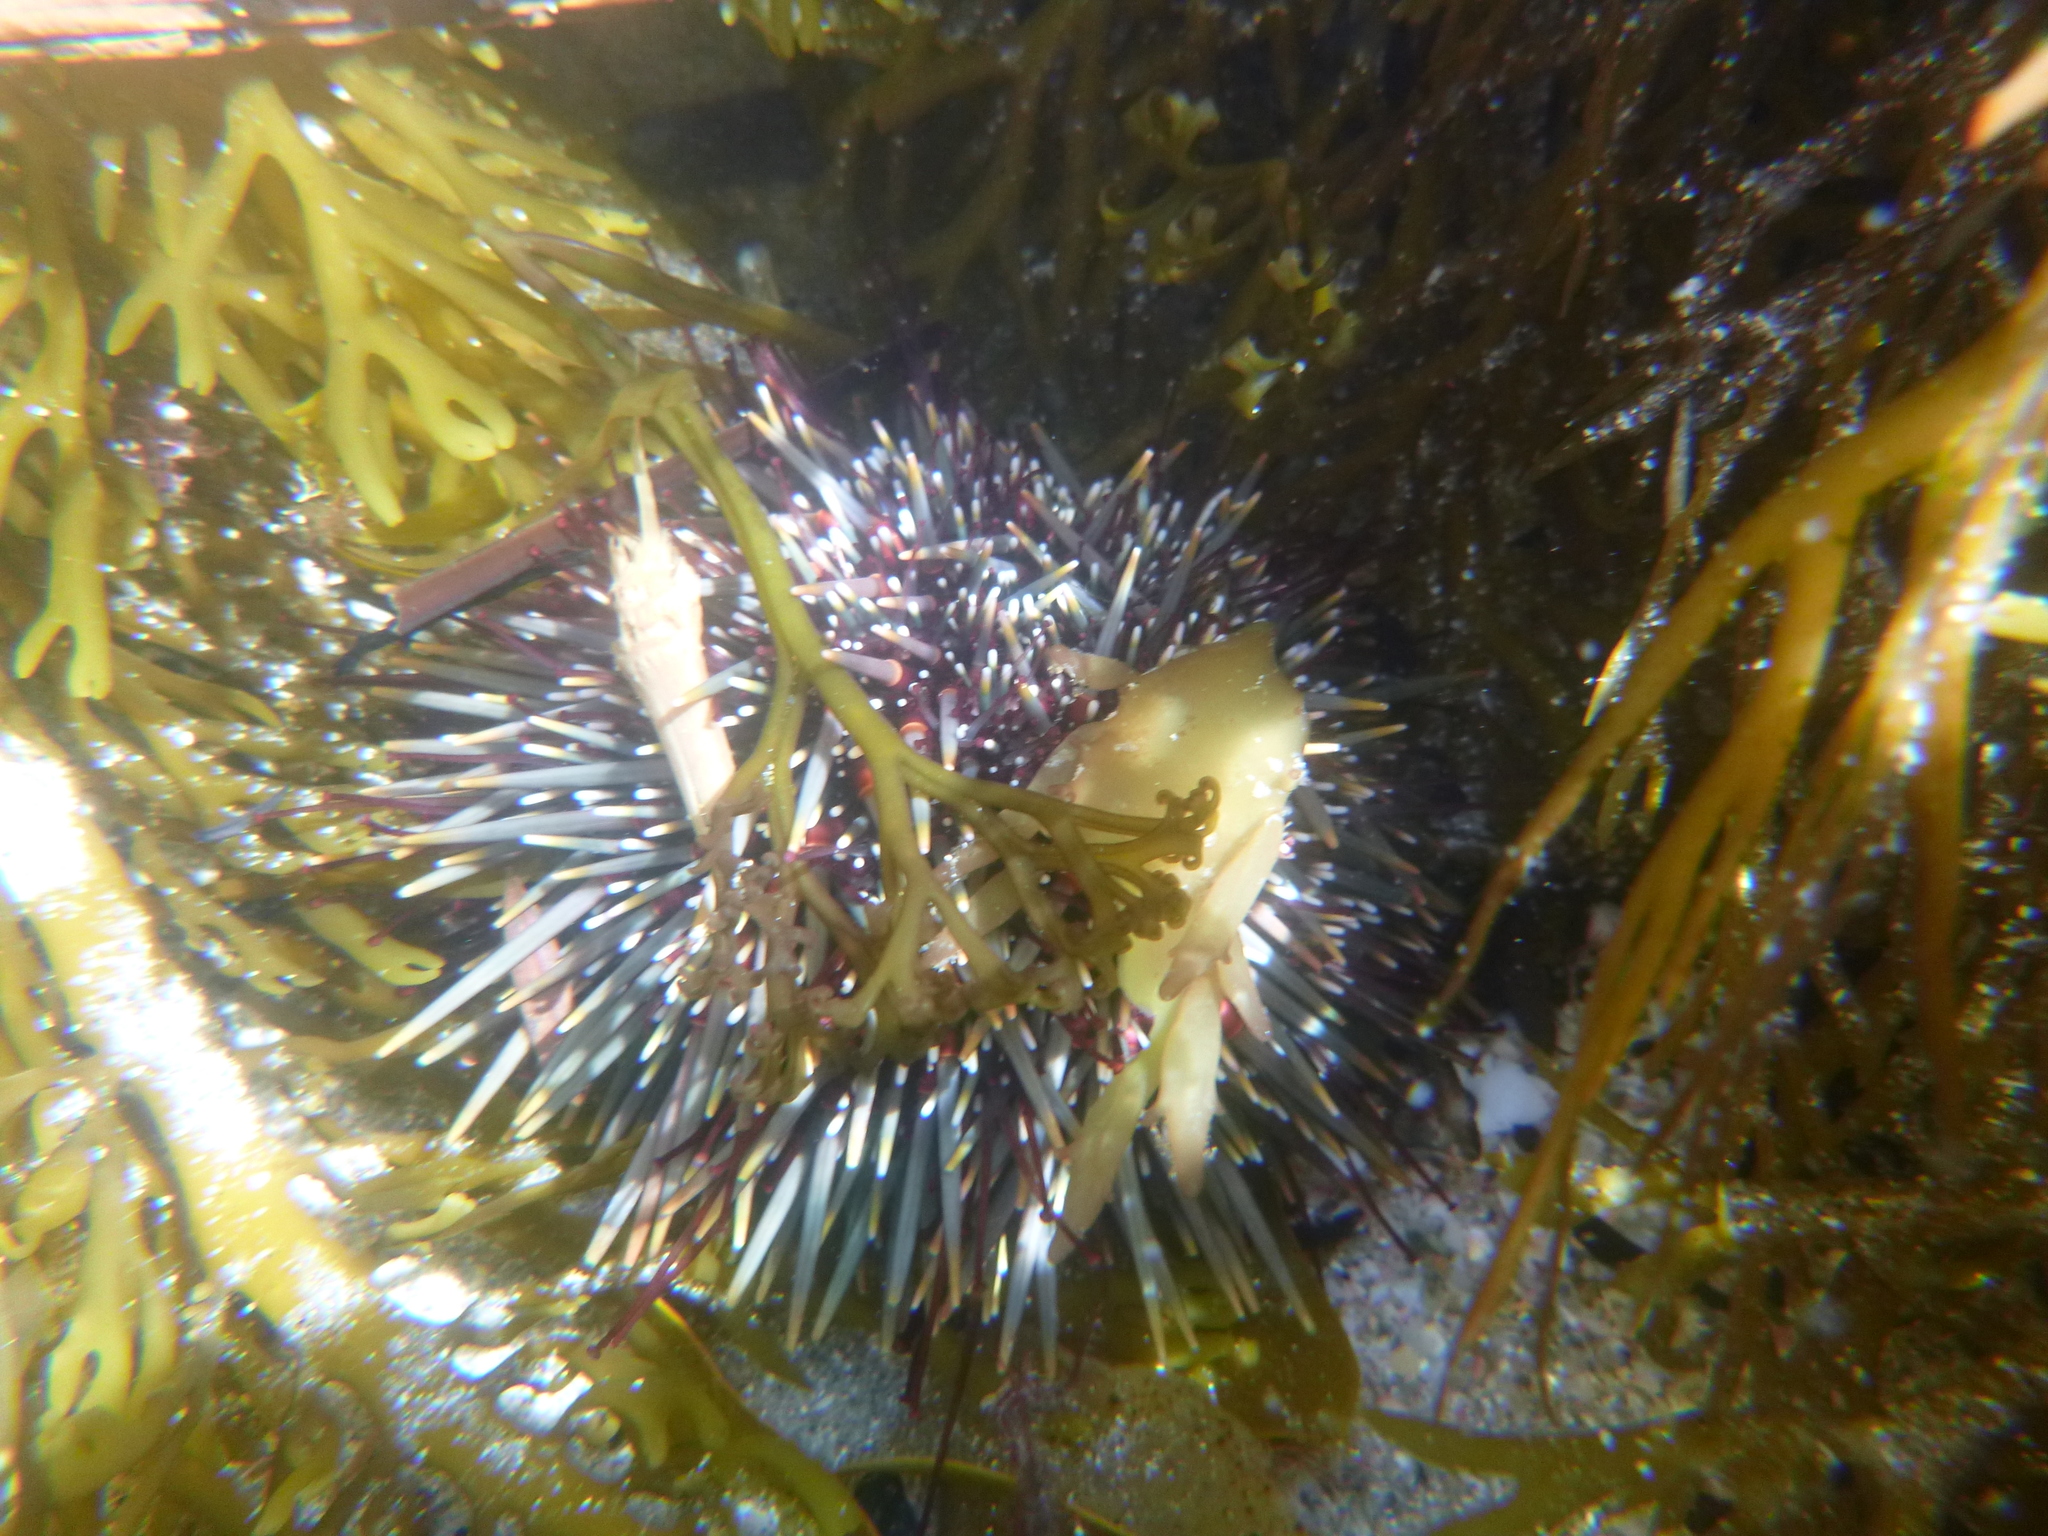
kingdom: Animalia
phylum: Echinodermata
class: Echinoidea
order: Camarodonta
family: Echinometridae
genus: Evechinus
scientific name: Evechinus chloroticus
